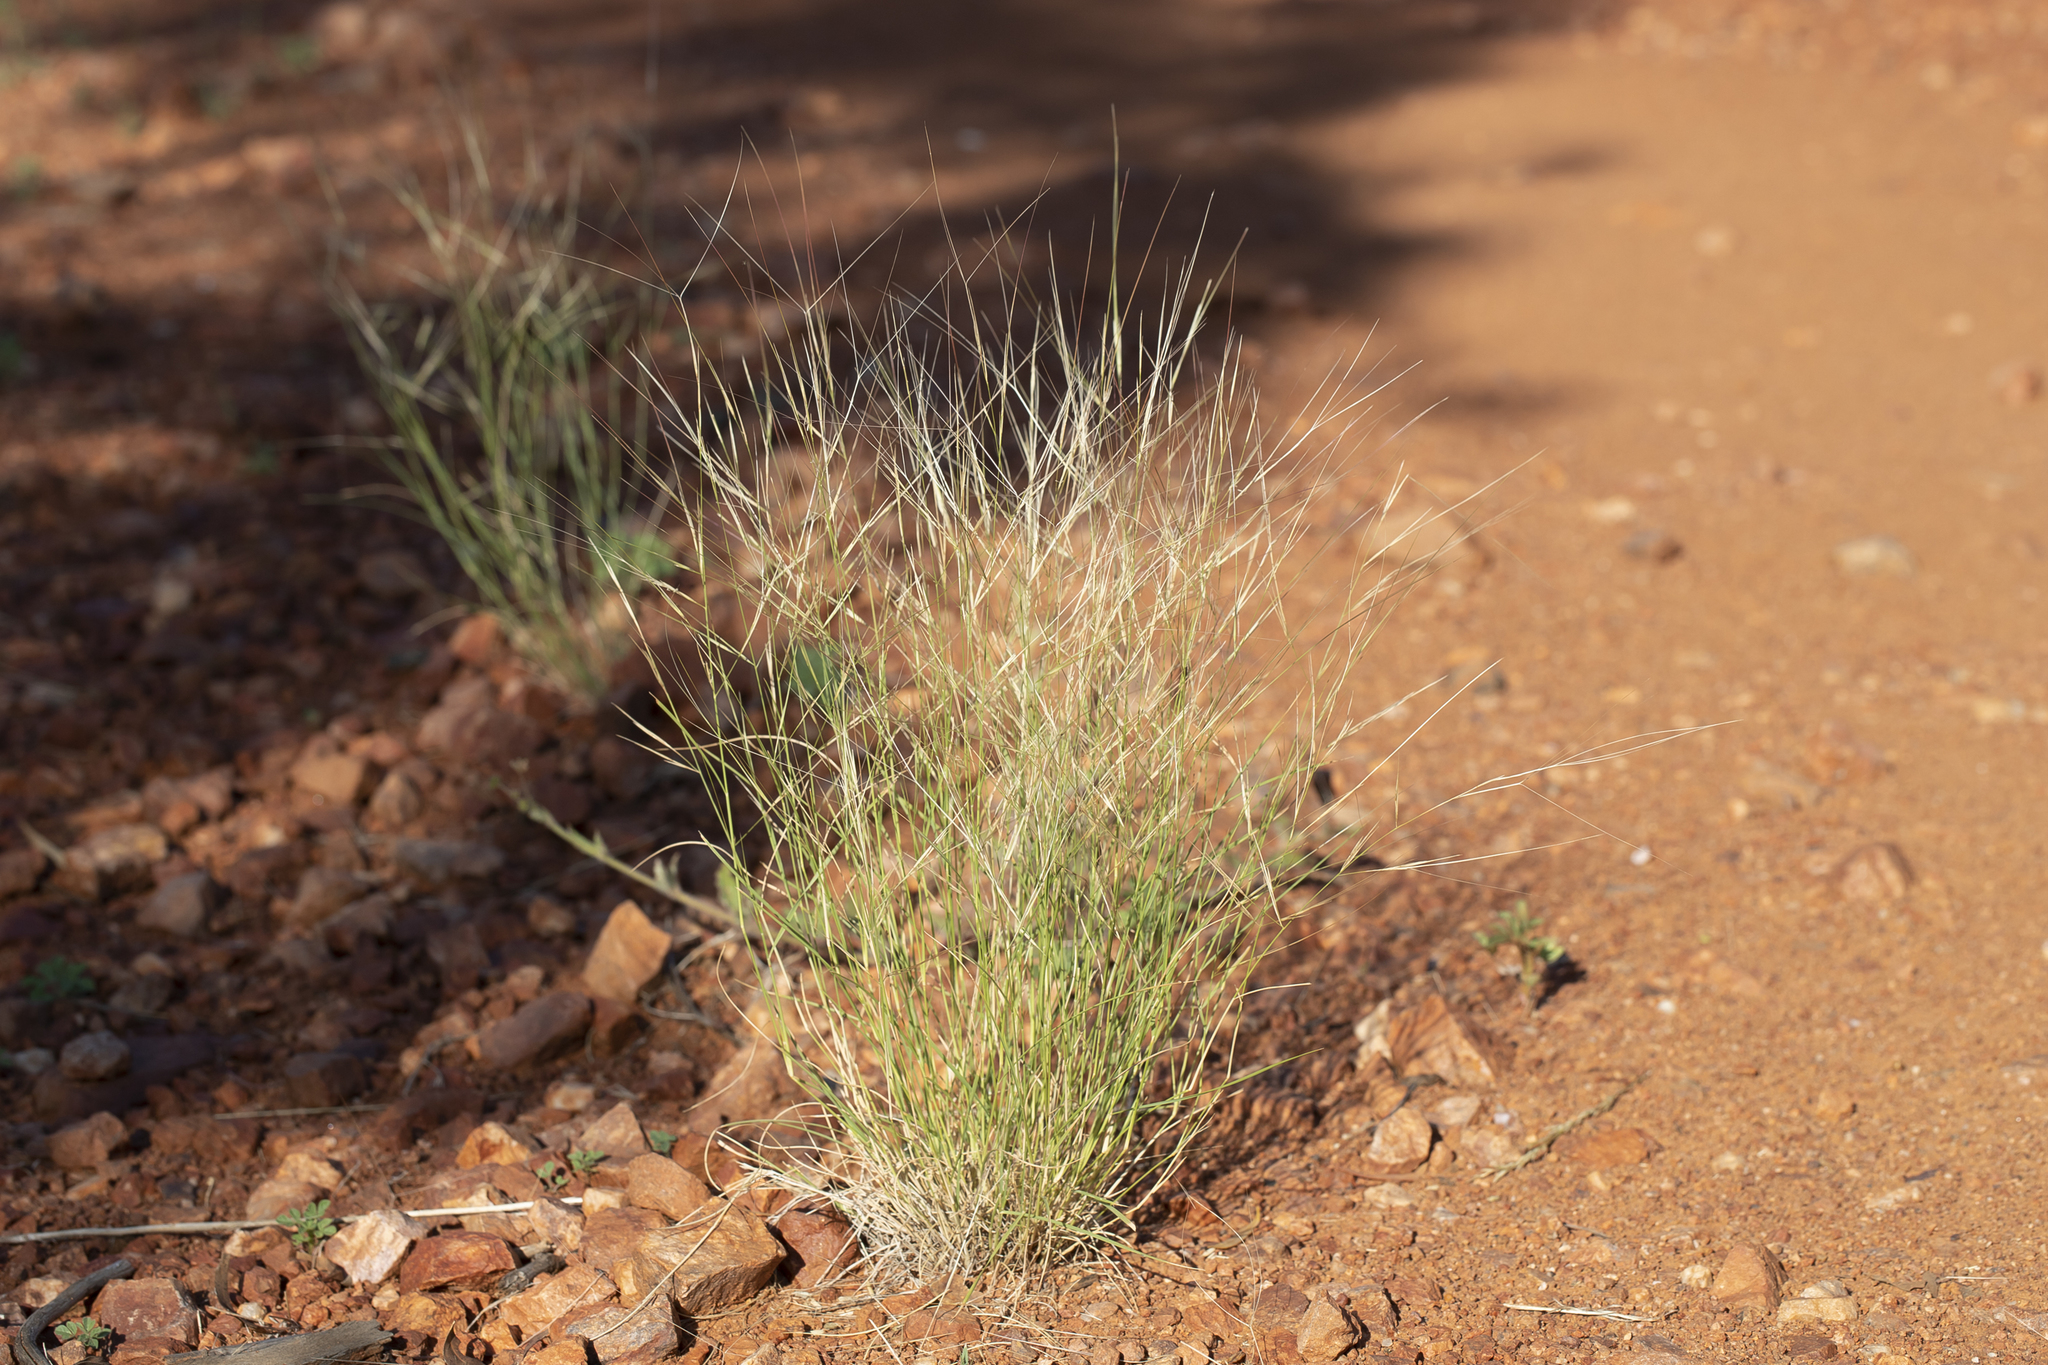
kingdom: Plantae
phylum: Tracheophyta
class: Liliopsida
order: Poales
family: Poaceae
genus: Aristida
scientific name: Aristida contorta
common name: Bunch kerosene grass
